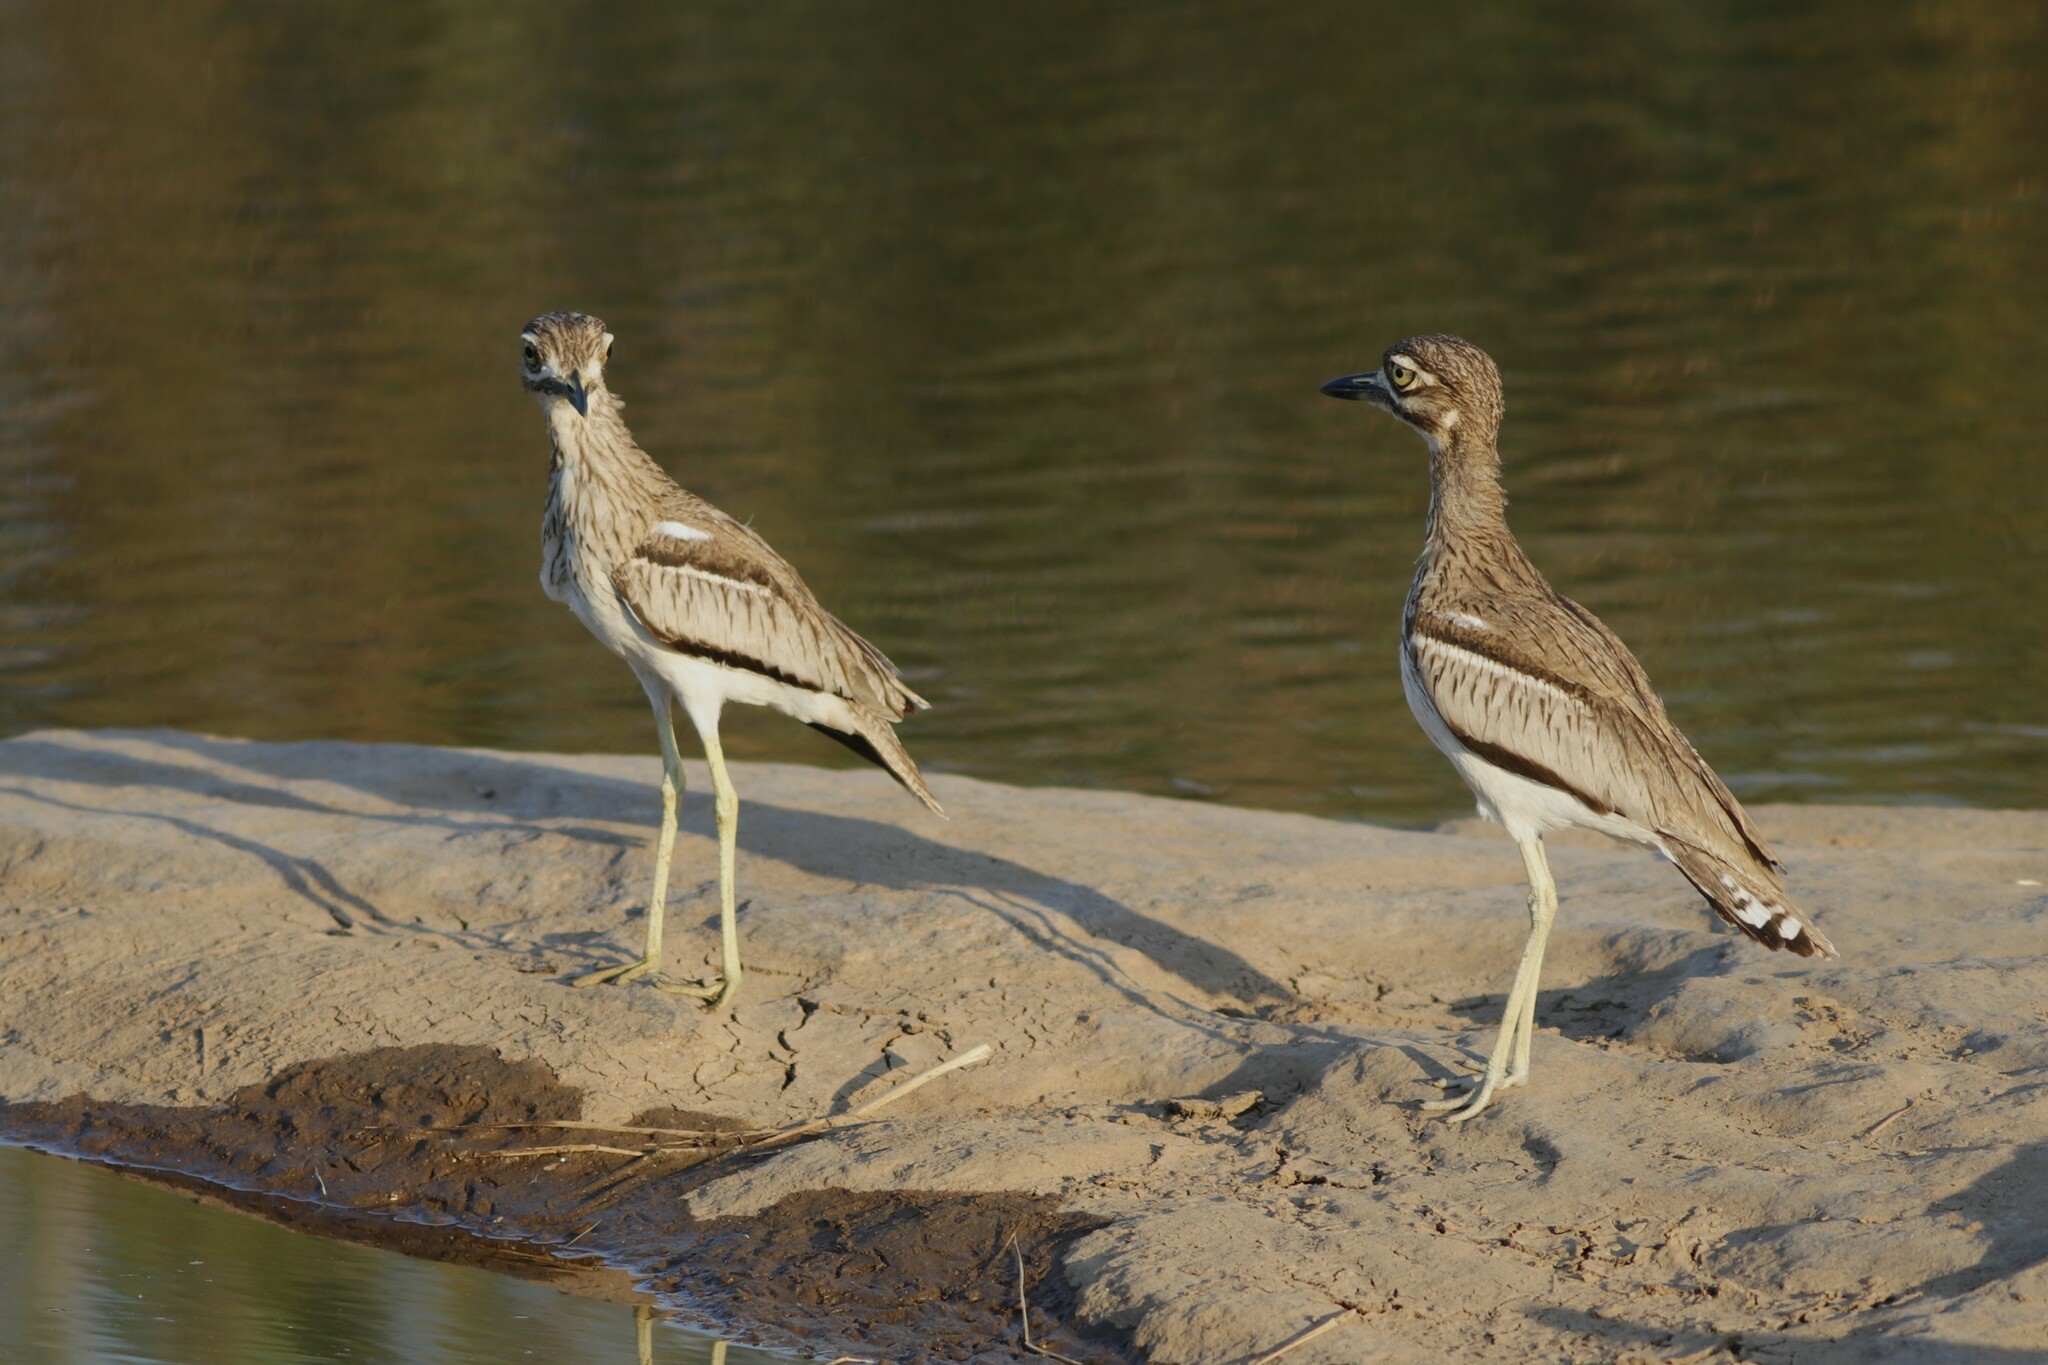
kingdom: Animalia
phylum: Chordata
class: Aves
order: Charadriiformes
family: Burhinidae
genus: Burhinus
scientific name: Burhinus vermiculatus
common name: Water thick-knee
